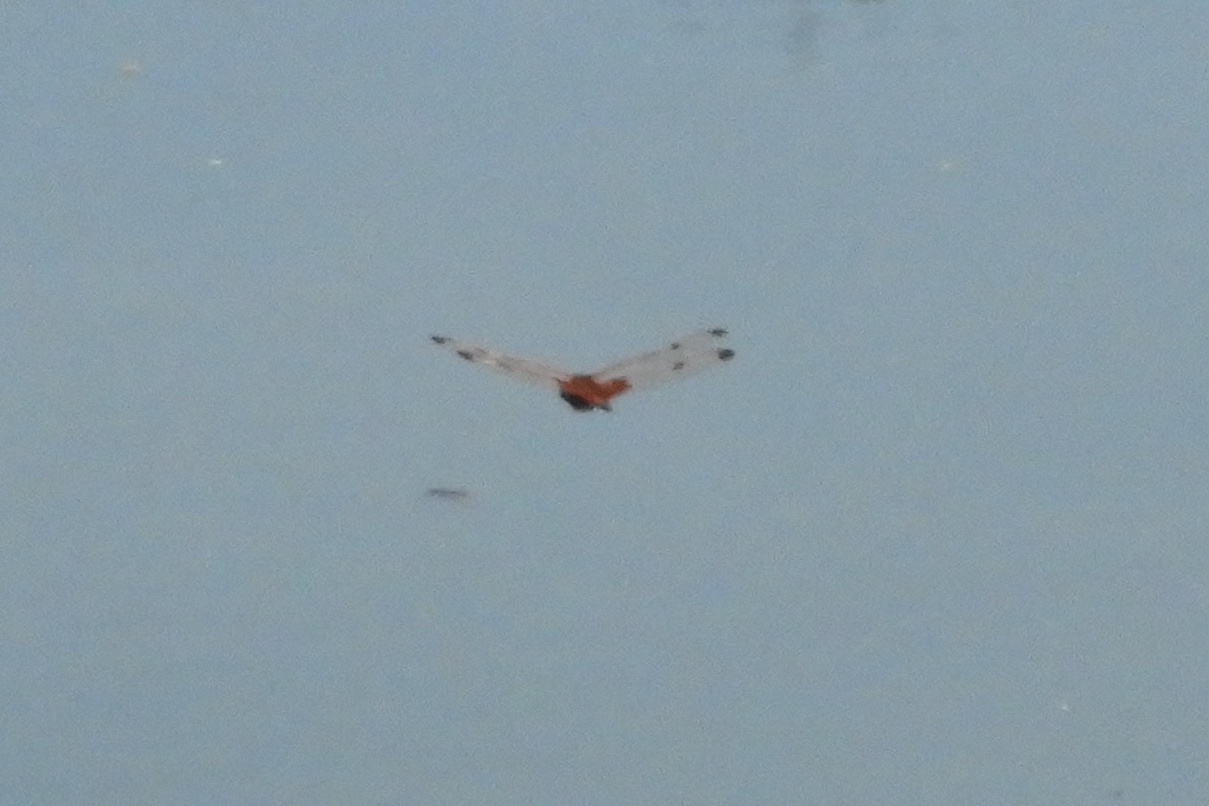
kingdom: Animalia
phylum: Arthropoda
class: Insecta
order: Odonata
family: Libellulidae
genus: Celithemis
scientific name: Celithemis elisa
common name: Calico pennant
